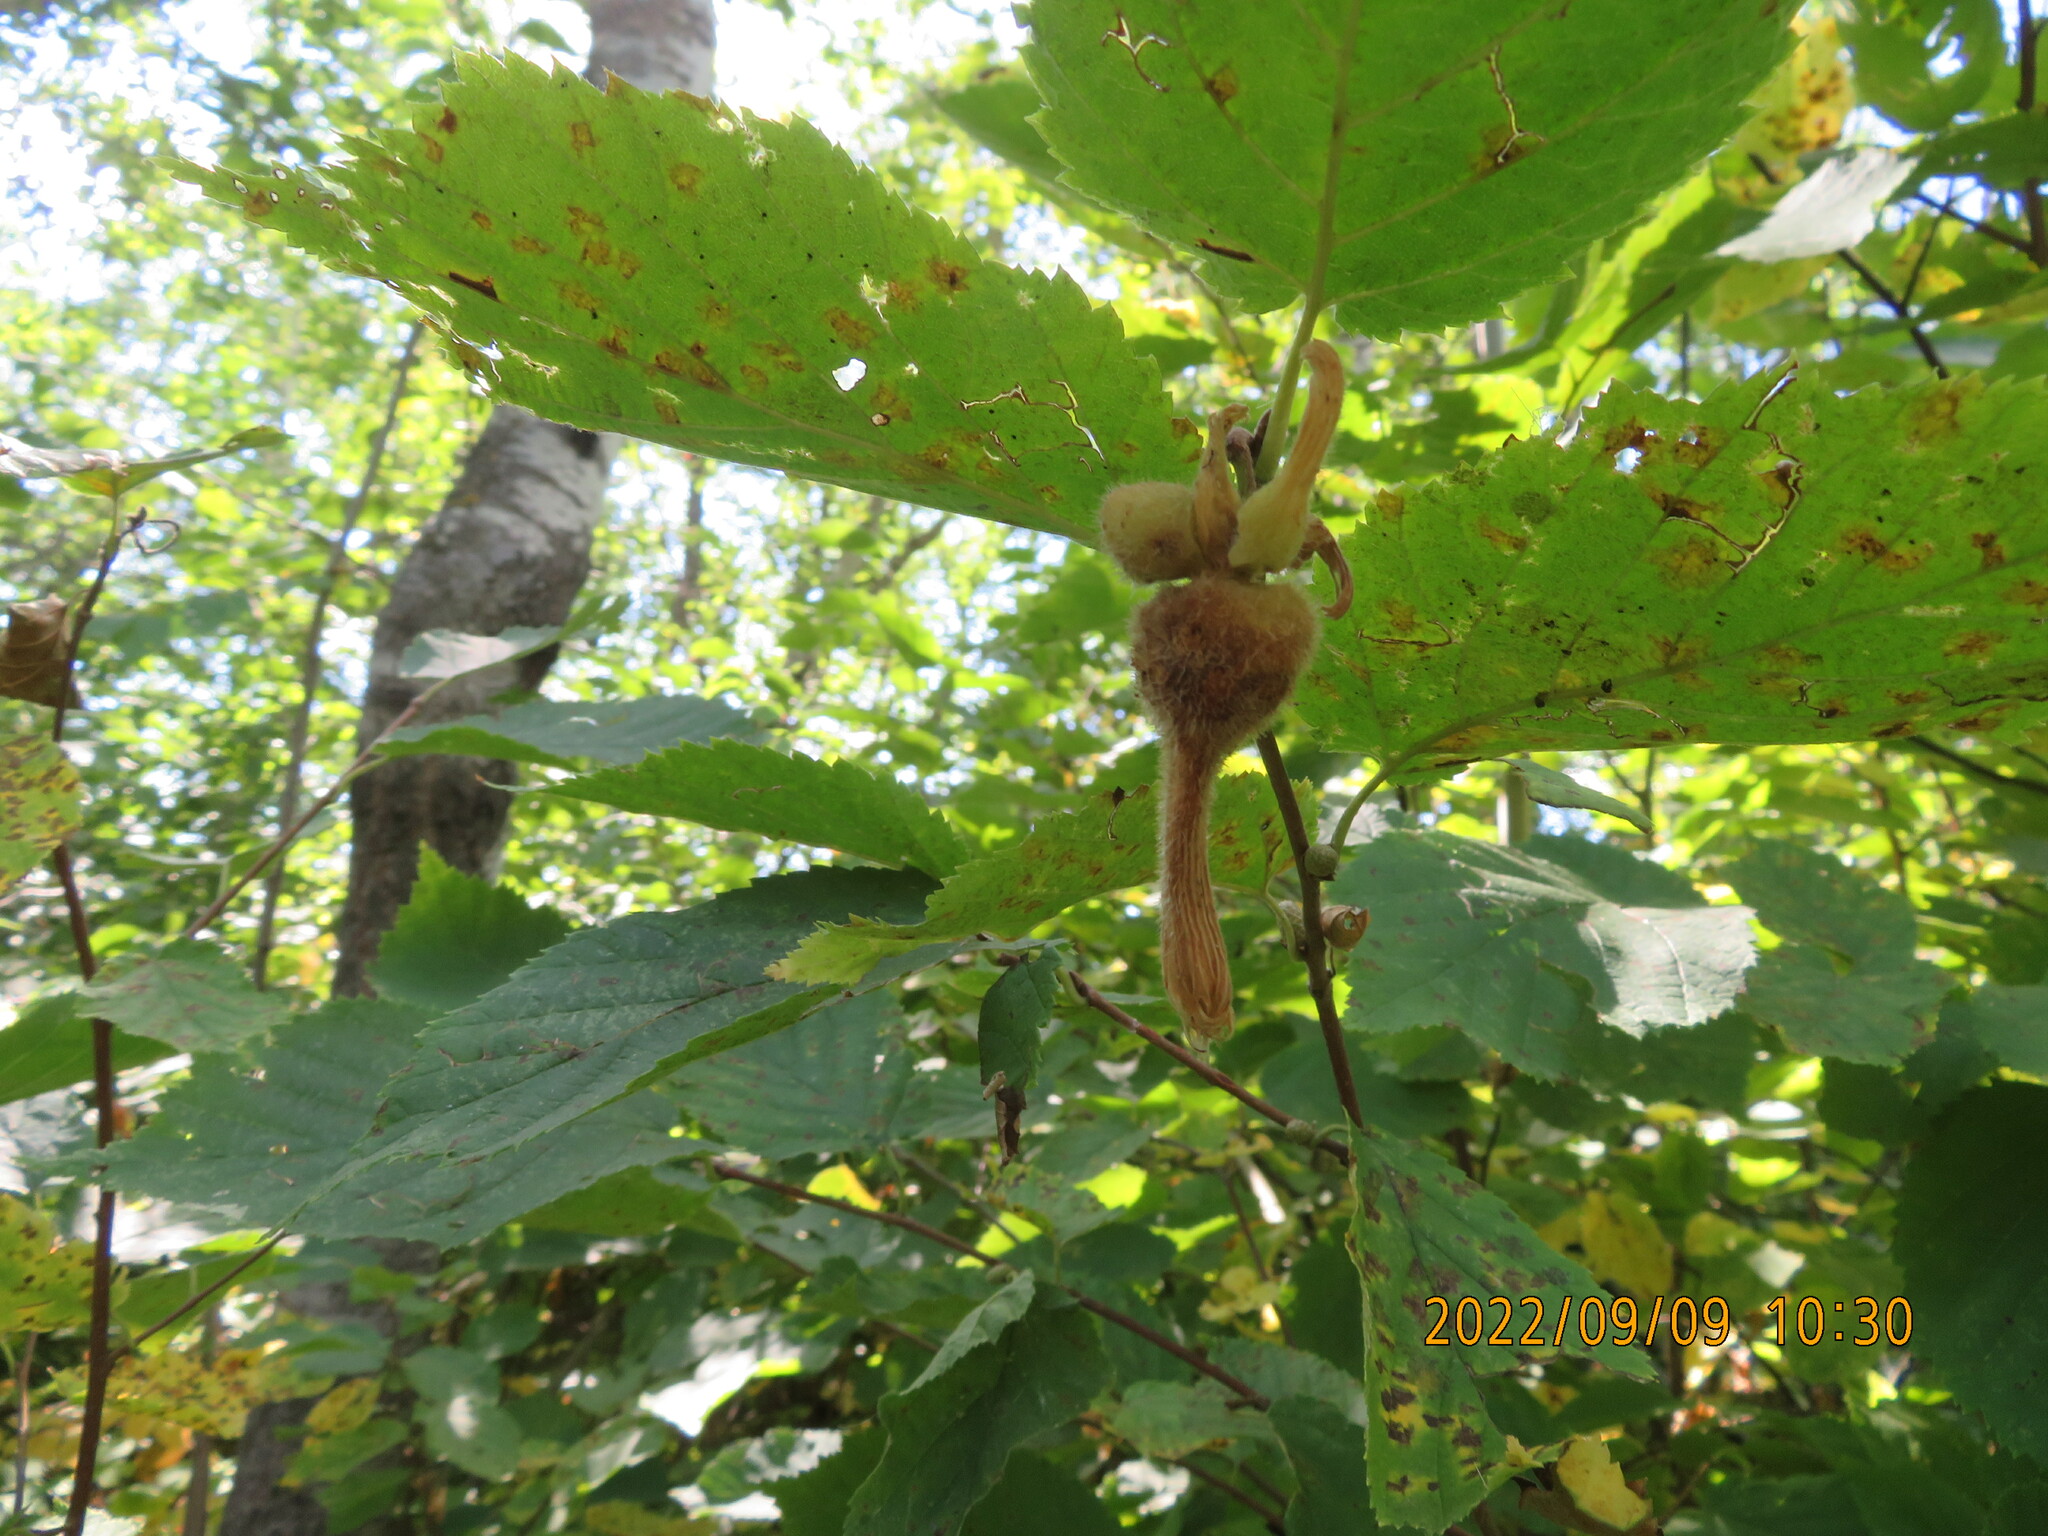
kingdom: Plantae
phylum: Tracheophyta
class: Magnoliopsida
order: Fagales
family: Betulaceae
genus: Corylus
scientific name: Corylus cornuta
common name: Beaked hazel
